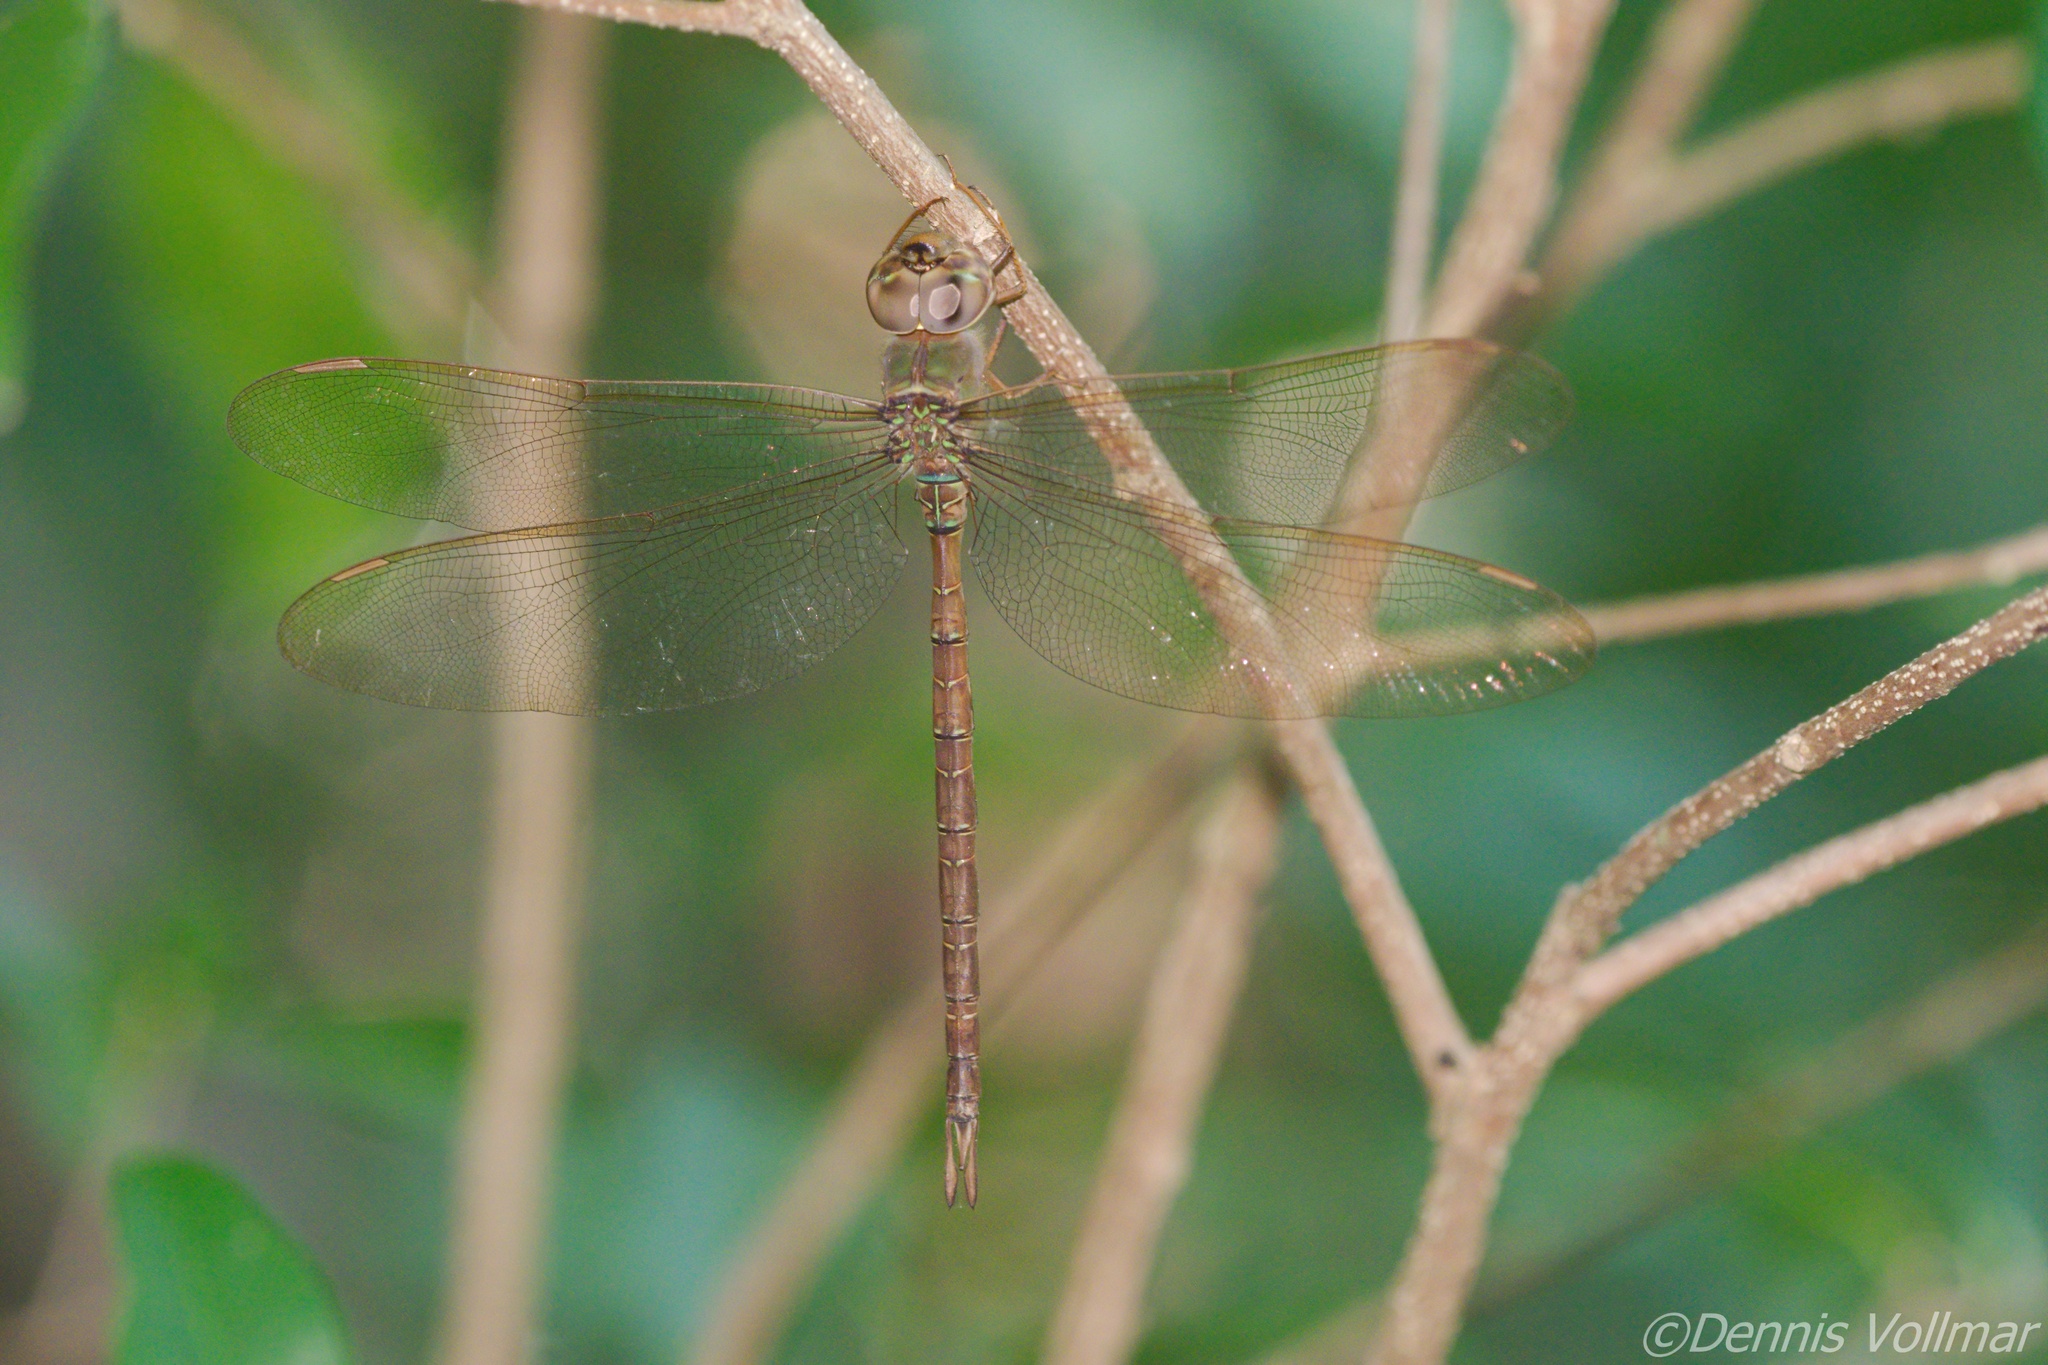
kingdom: Animalia
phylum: Arthropoda
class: Insecta
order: Odonata
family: Aeshnidae
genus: Gynacantha
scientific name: Gynacantha nervosa
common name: Twilight darner
